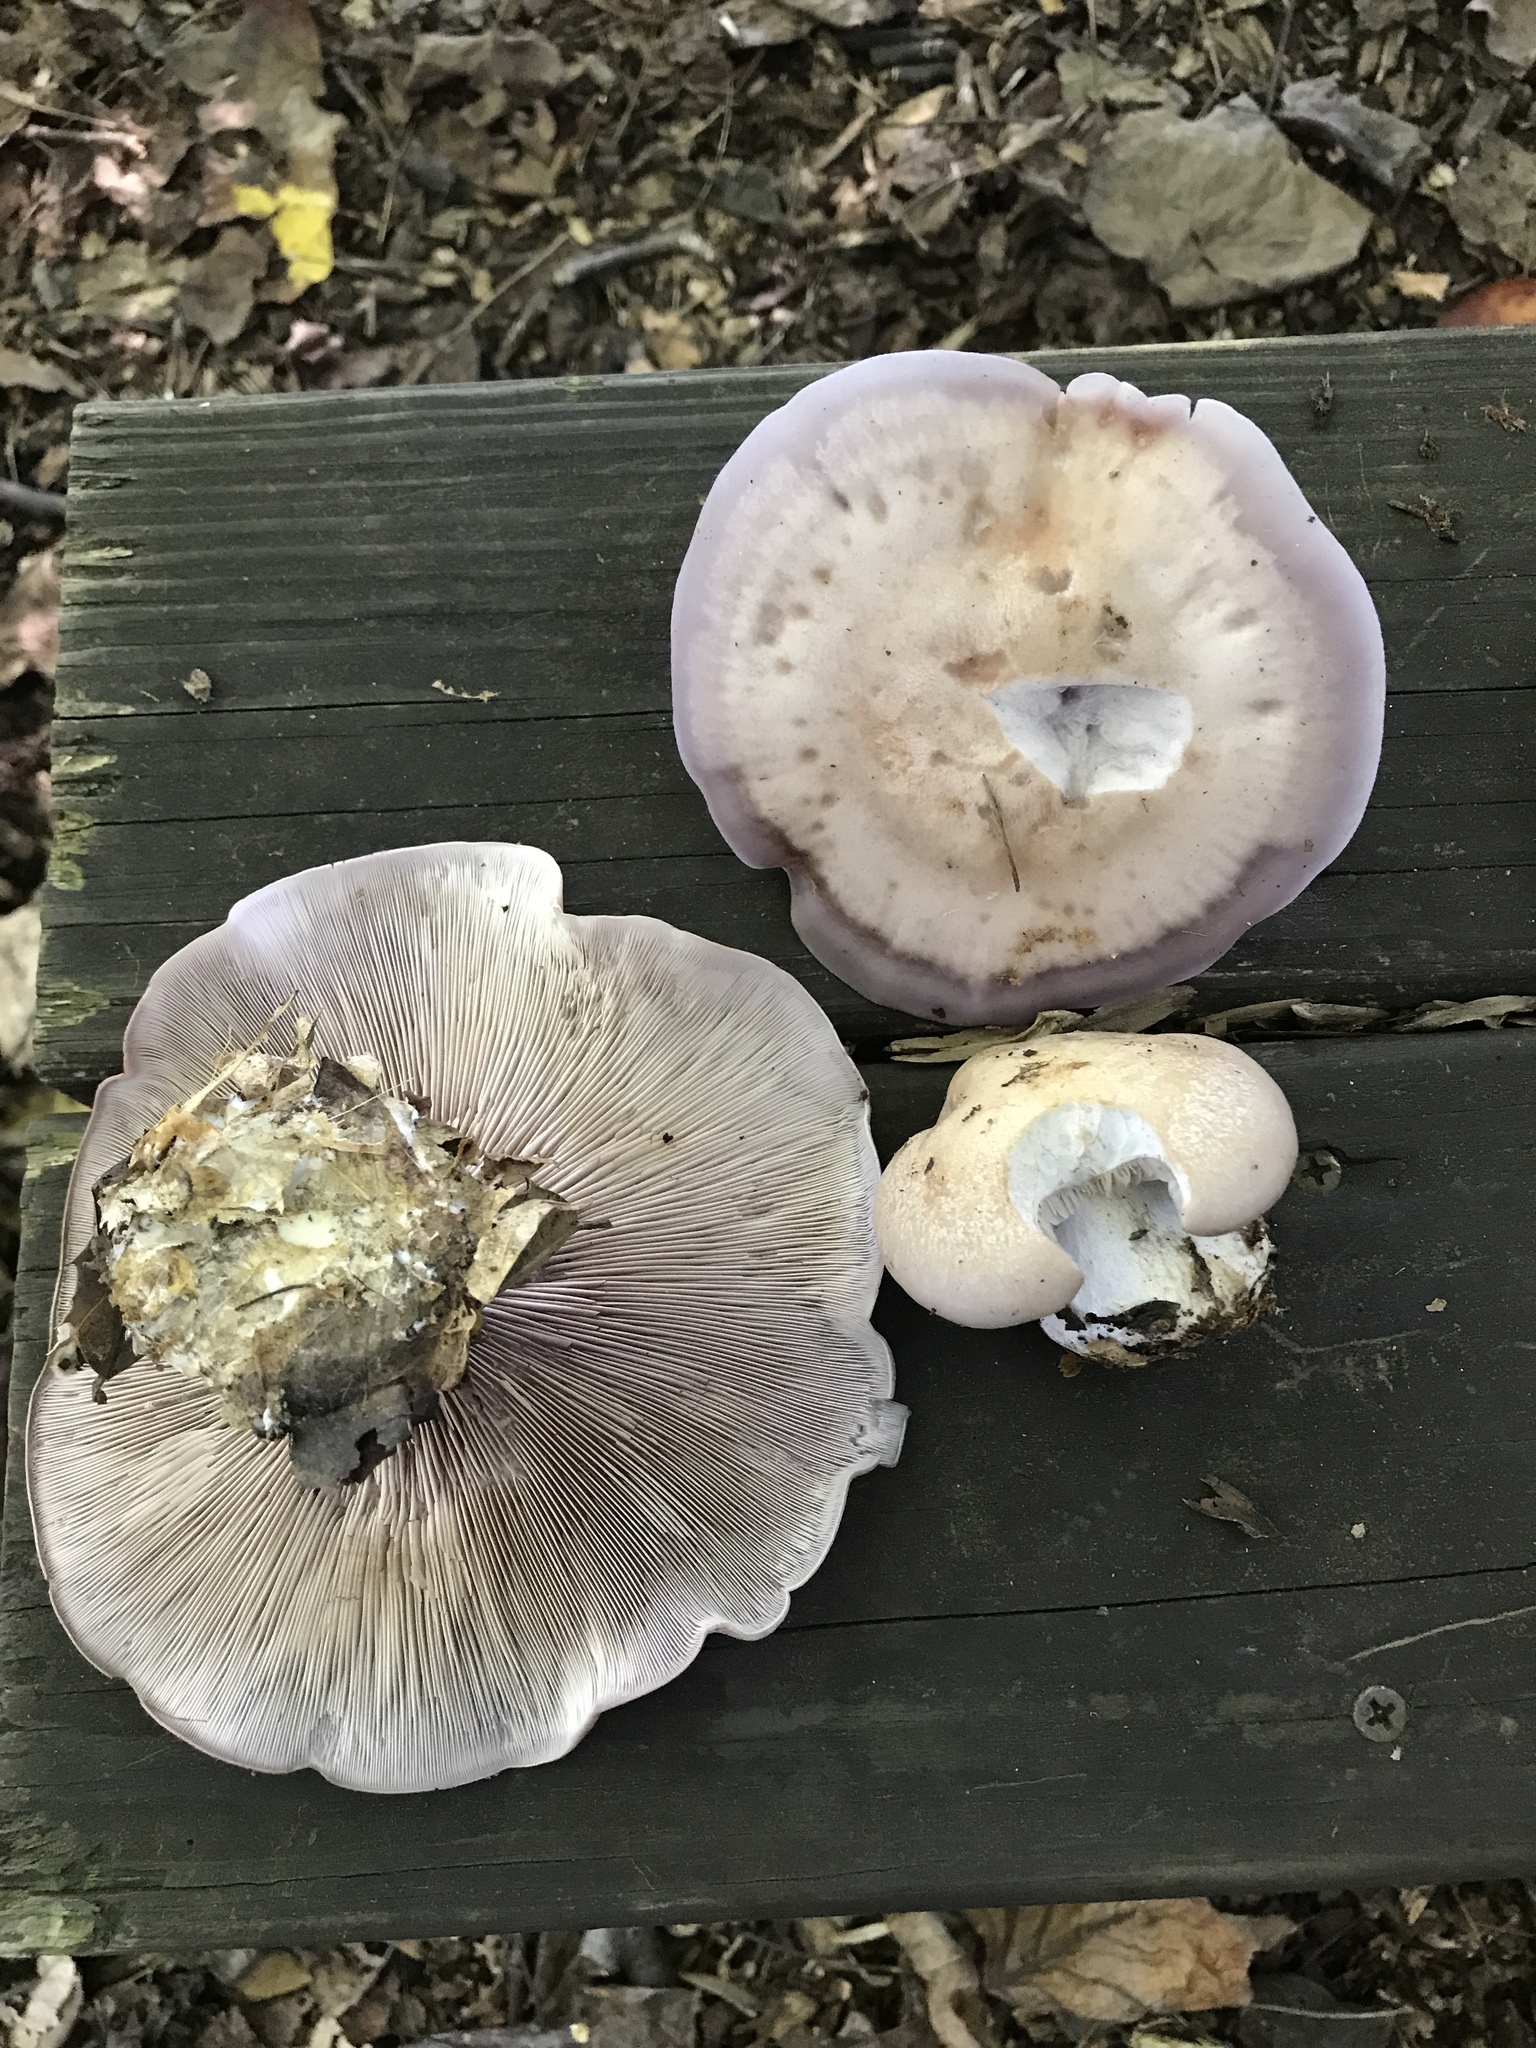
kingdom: Fungi
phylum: Basidiomycota
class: Agaricomycetes
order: Agaricales
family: Tricholomataceae
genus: Collybia
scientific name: Collybia
